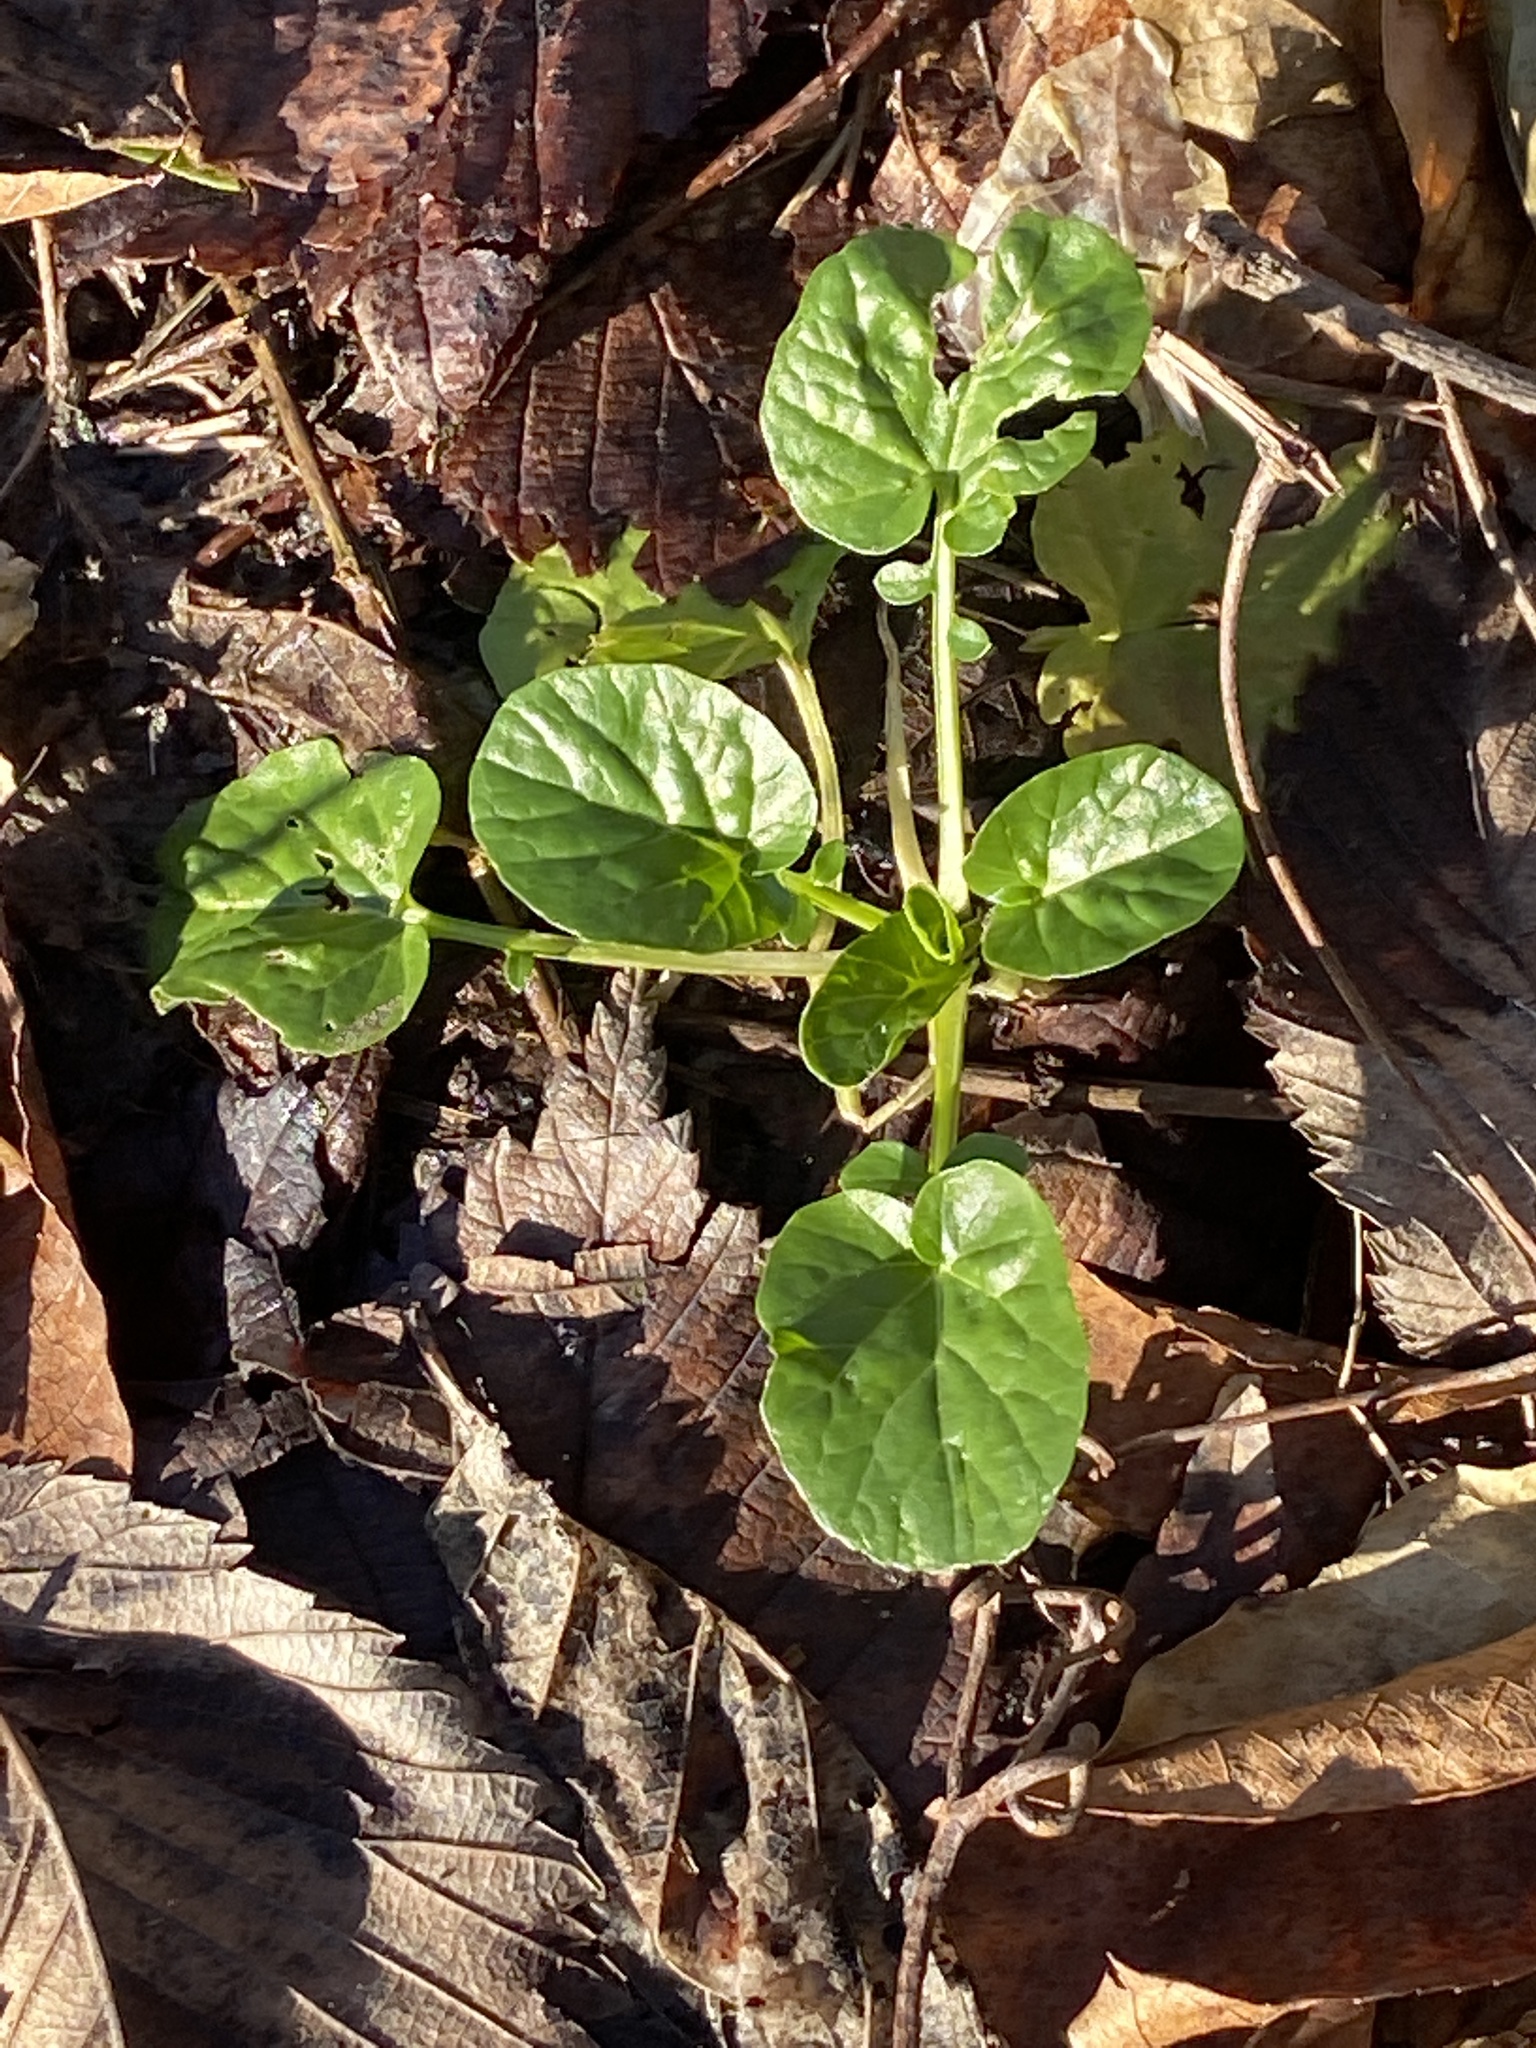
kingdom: Plantae
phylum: Tracheophyta
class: Magnoliopsida
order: Brassicales
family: Brassicaceae
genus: Barbarea
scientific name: Barbarea vulgaris
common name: Cressy-greens
